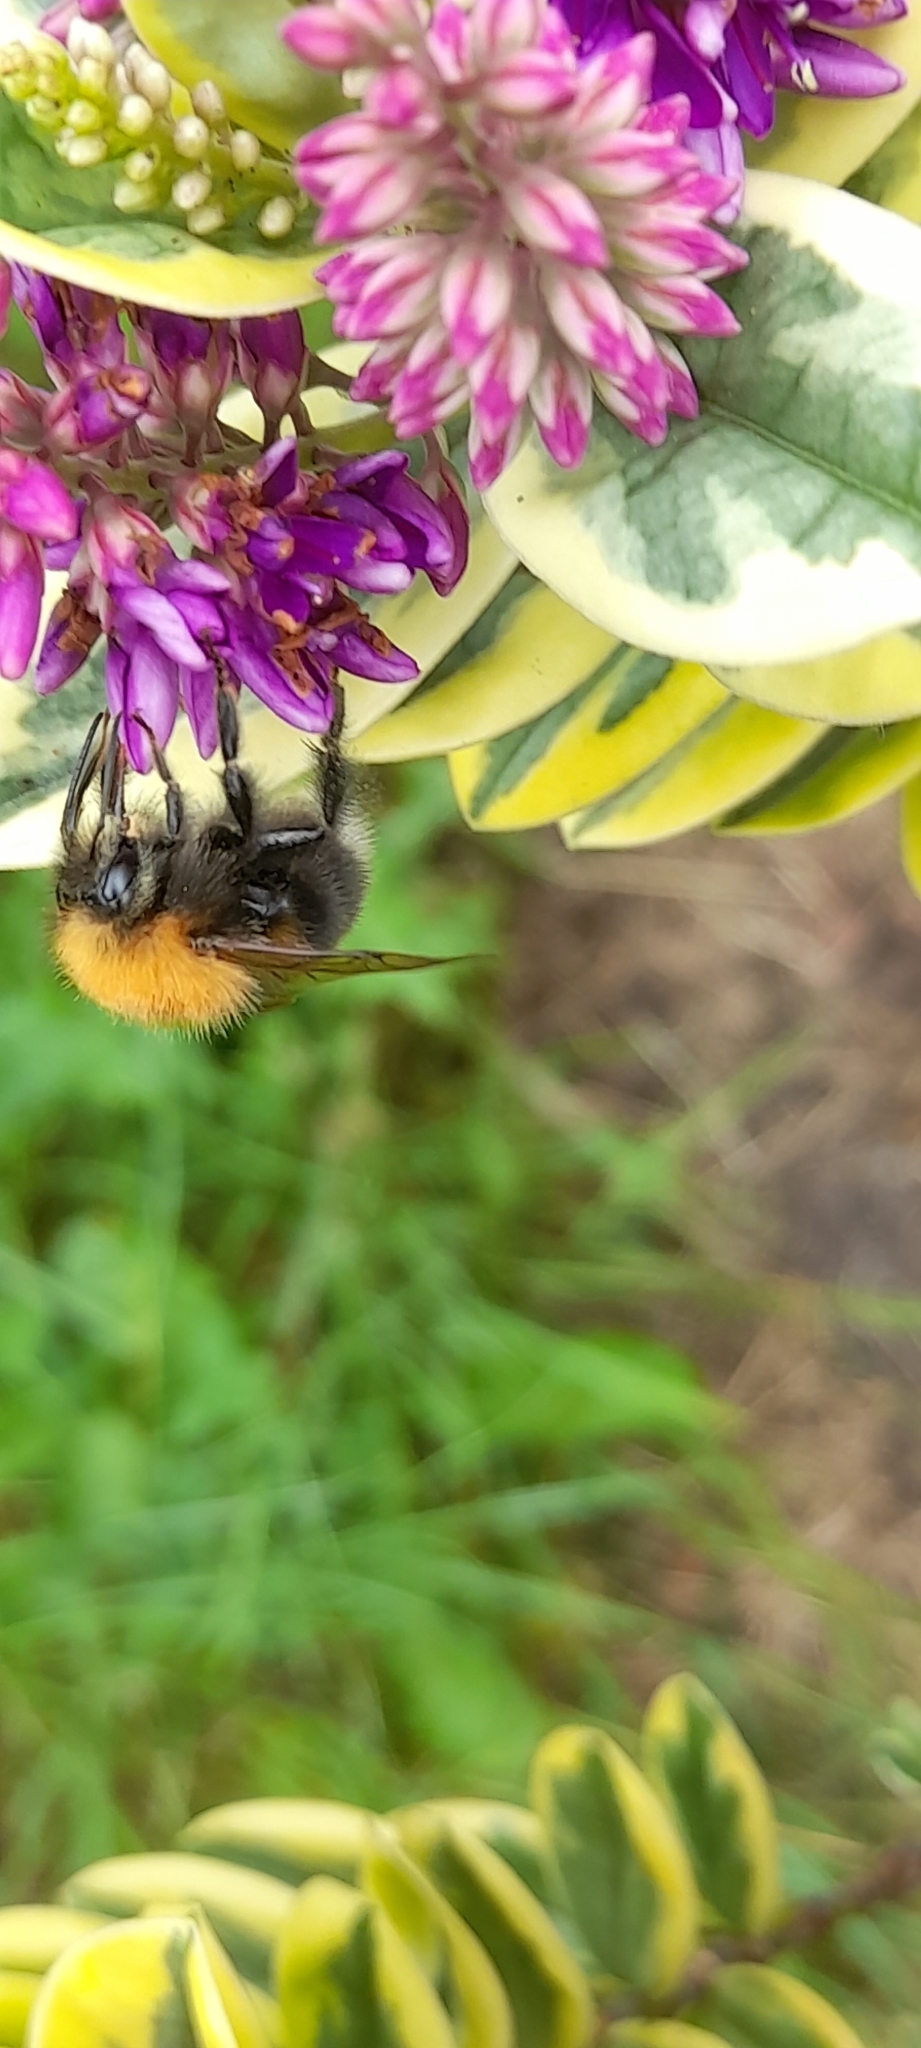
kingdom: Animalia
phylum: Arthropoda
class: Insecta
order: Hymenoptera
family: Apidae
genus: Bombus
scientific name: Bombus hypnorum
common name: New garden bumblebee
